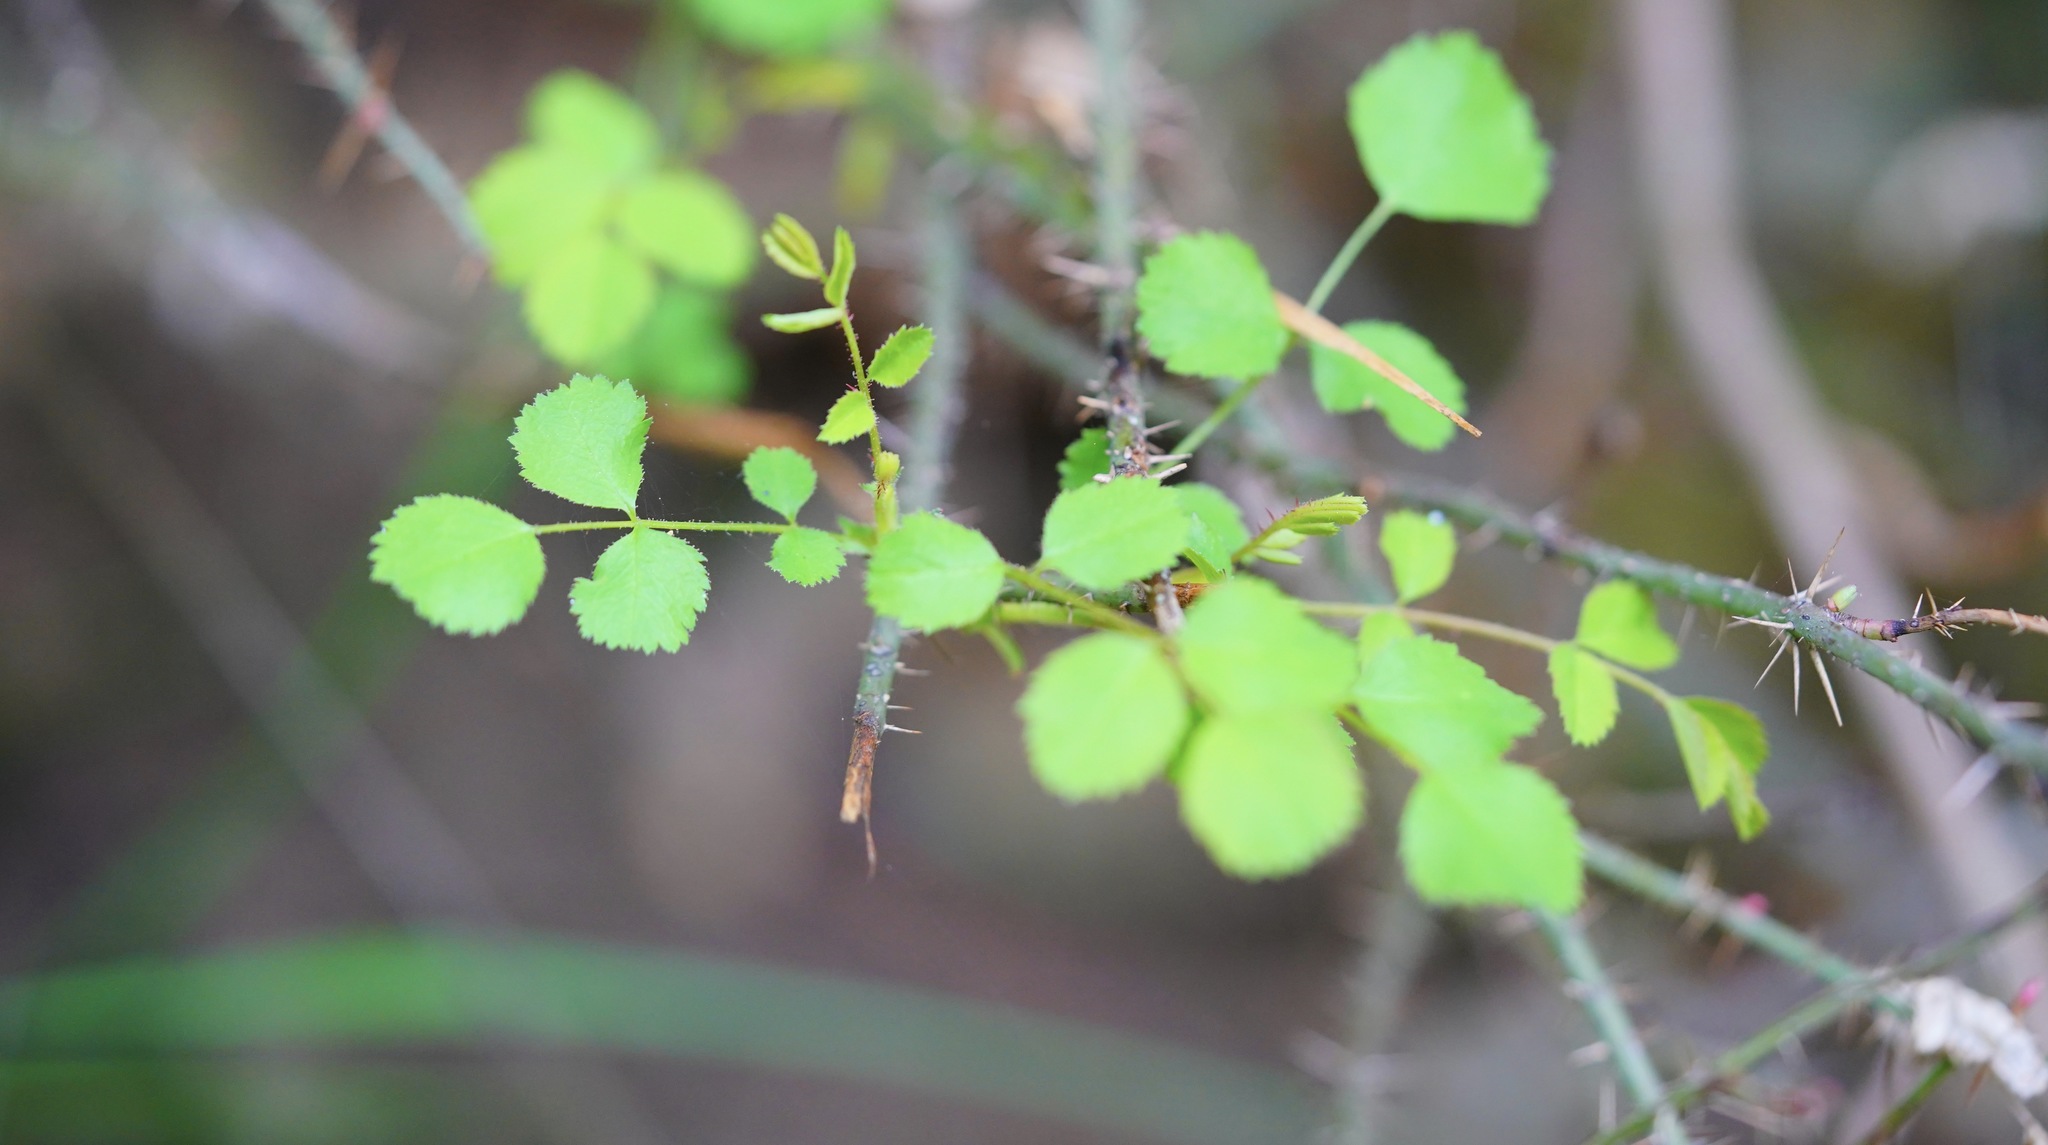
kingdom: Plantae
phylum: Tracheophyta
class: Magnoliopsida
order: Rosales
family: Rosaceae
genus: Rosa
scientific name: Rosa gymnocarpa
